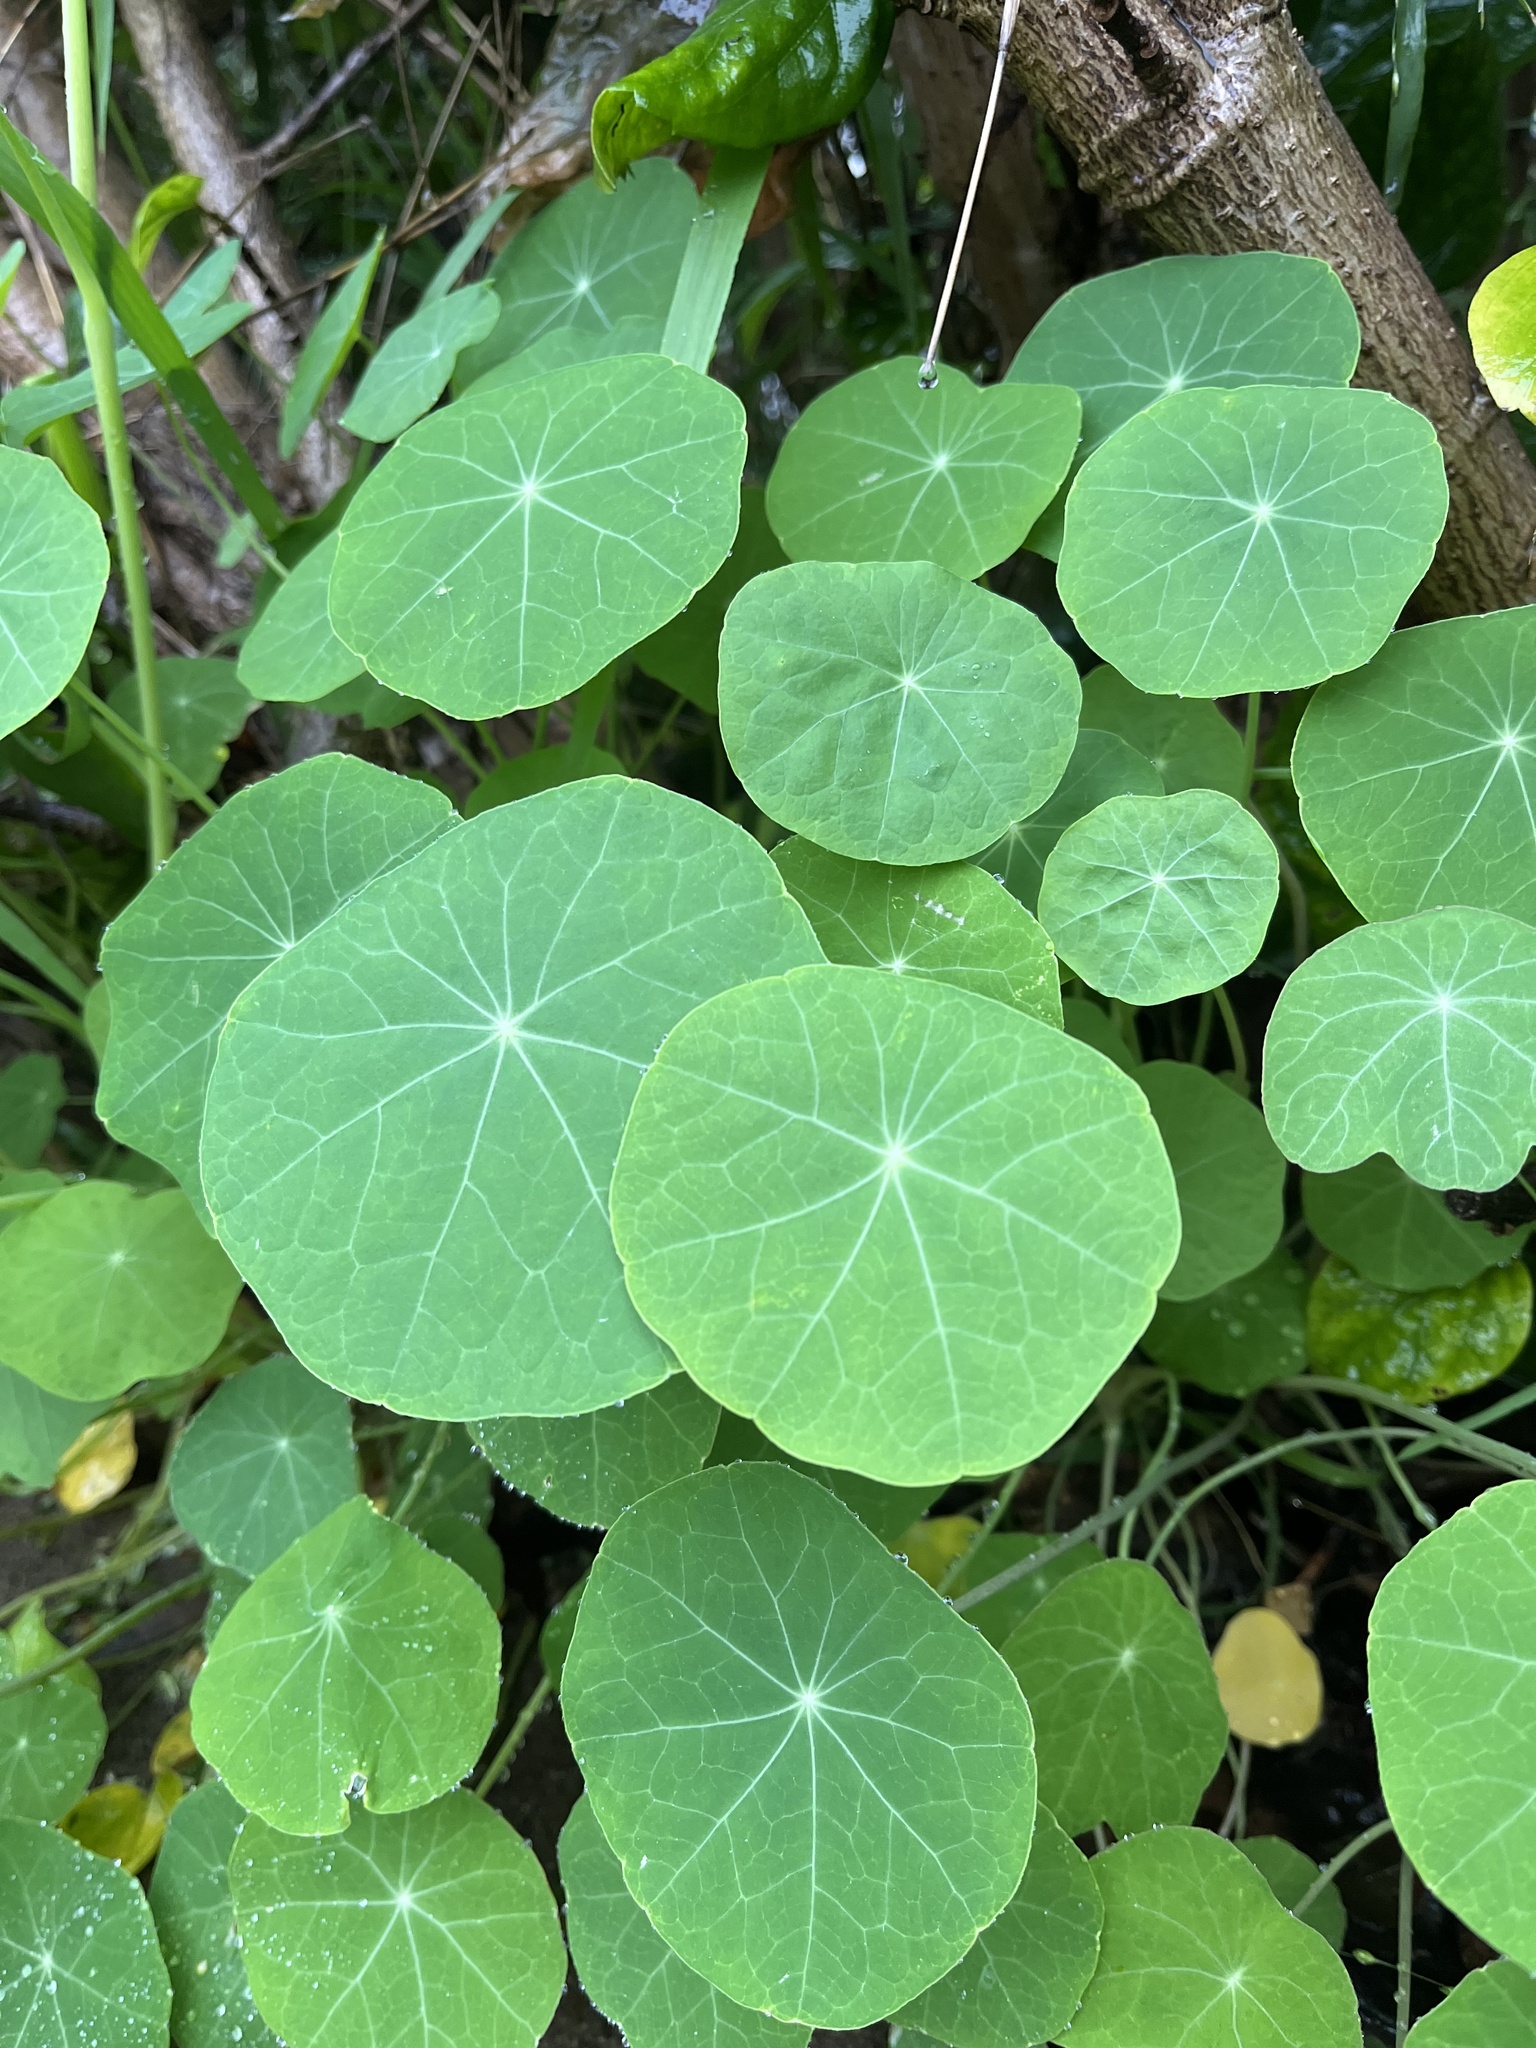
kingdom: Plantae
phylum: Tracheophyta
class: Magnoliopsida
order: Brassicales
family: Tropaeolaceae
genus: Tropaeolum
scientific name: Tropaeolum majus
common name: Nasturtium
